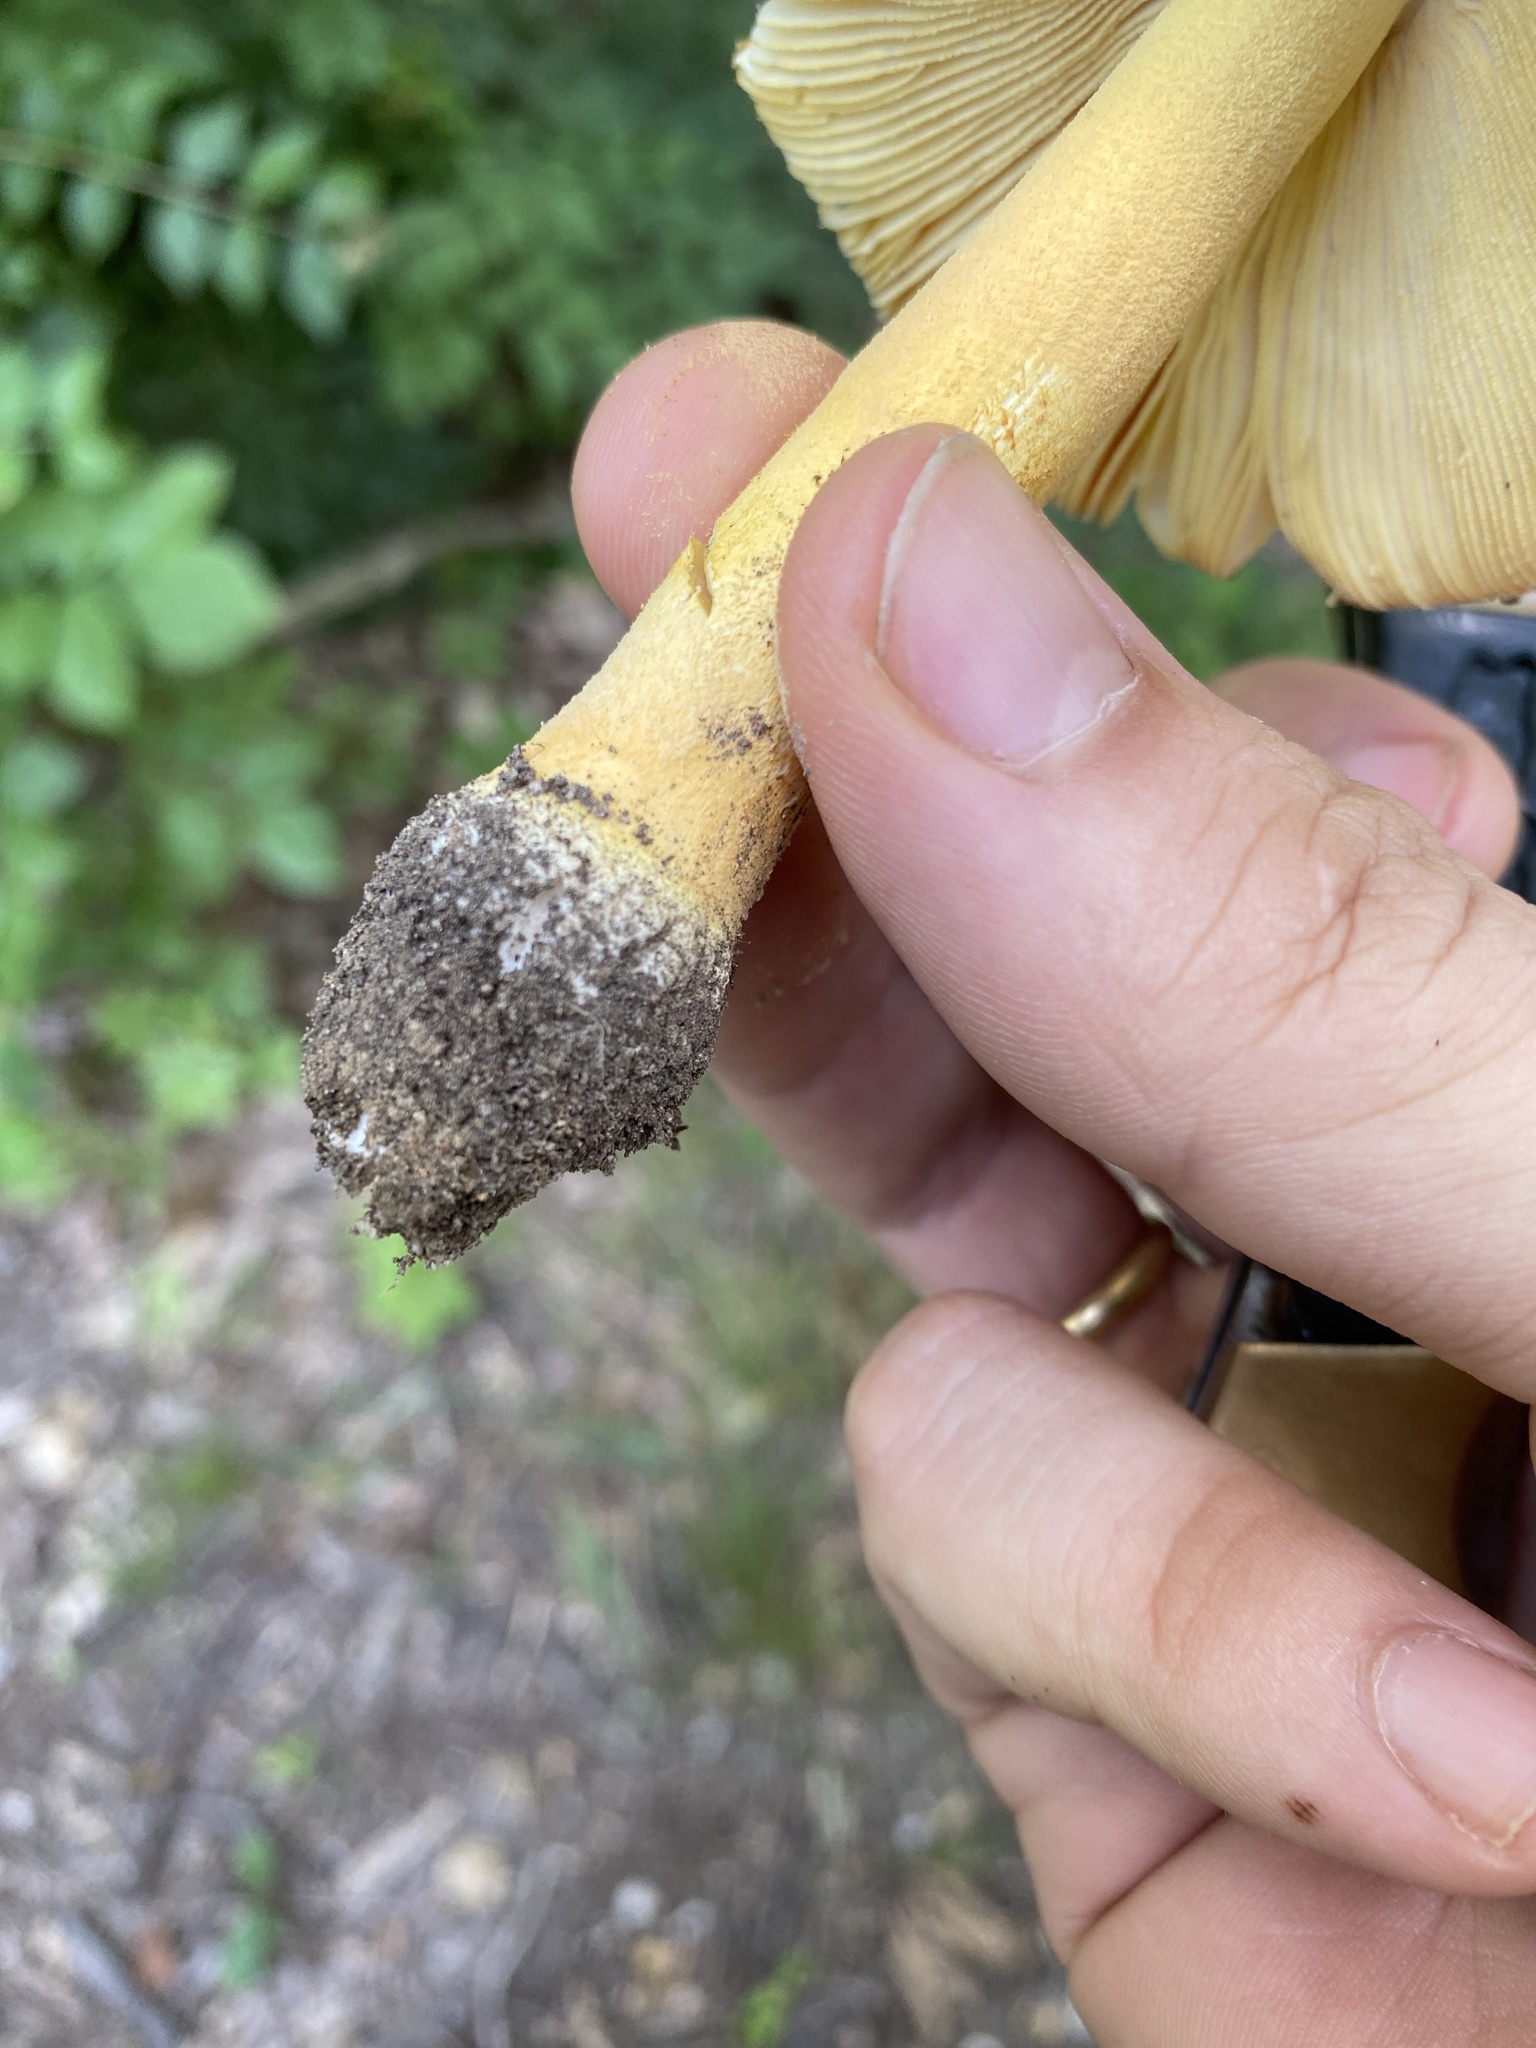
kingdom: Fungi
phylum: Basidiomycota
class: Agaricomycetes
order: Agaricales
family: Amanitaceae
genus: Amanita
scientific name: Amanita parcivolvata
